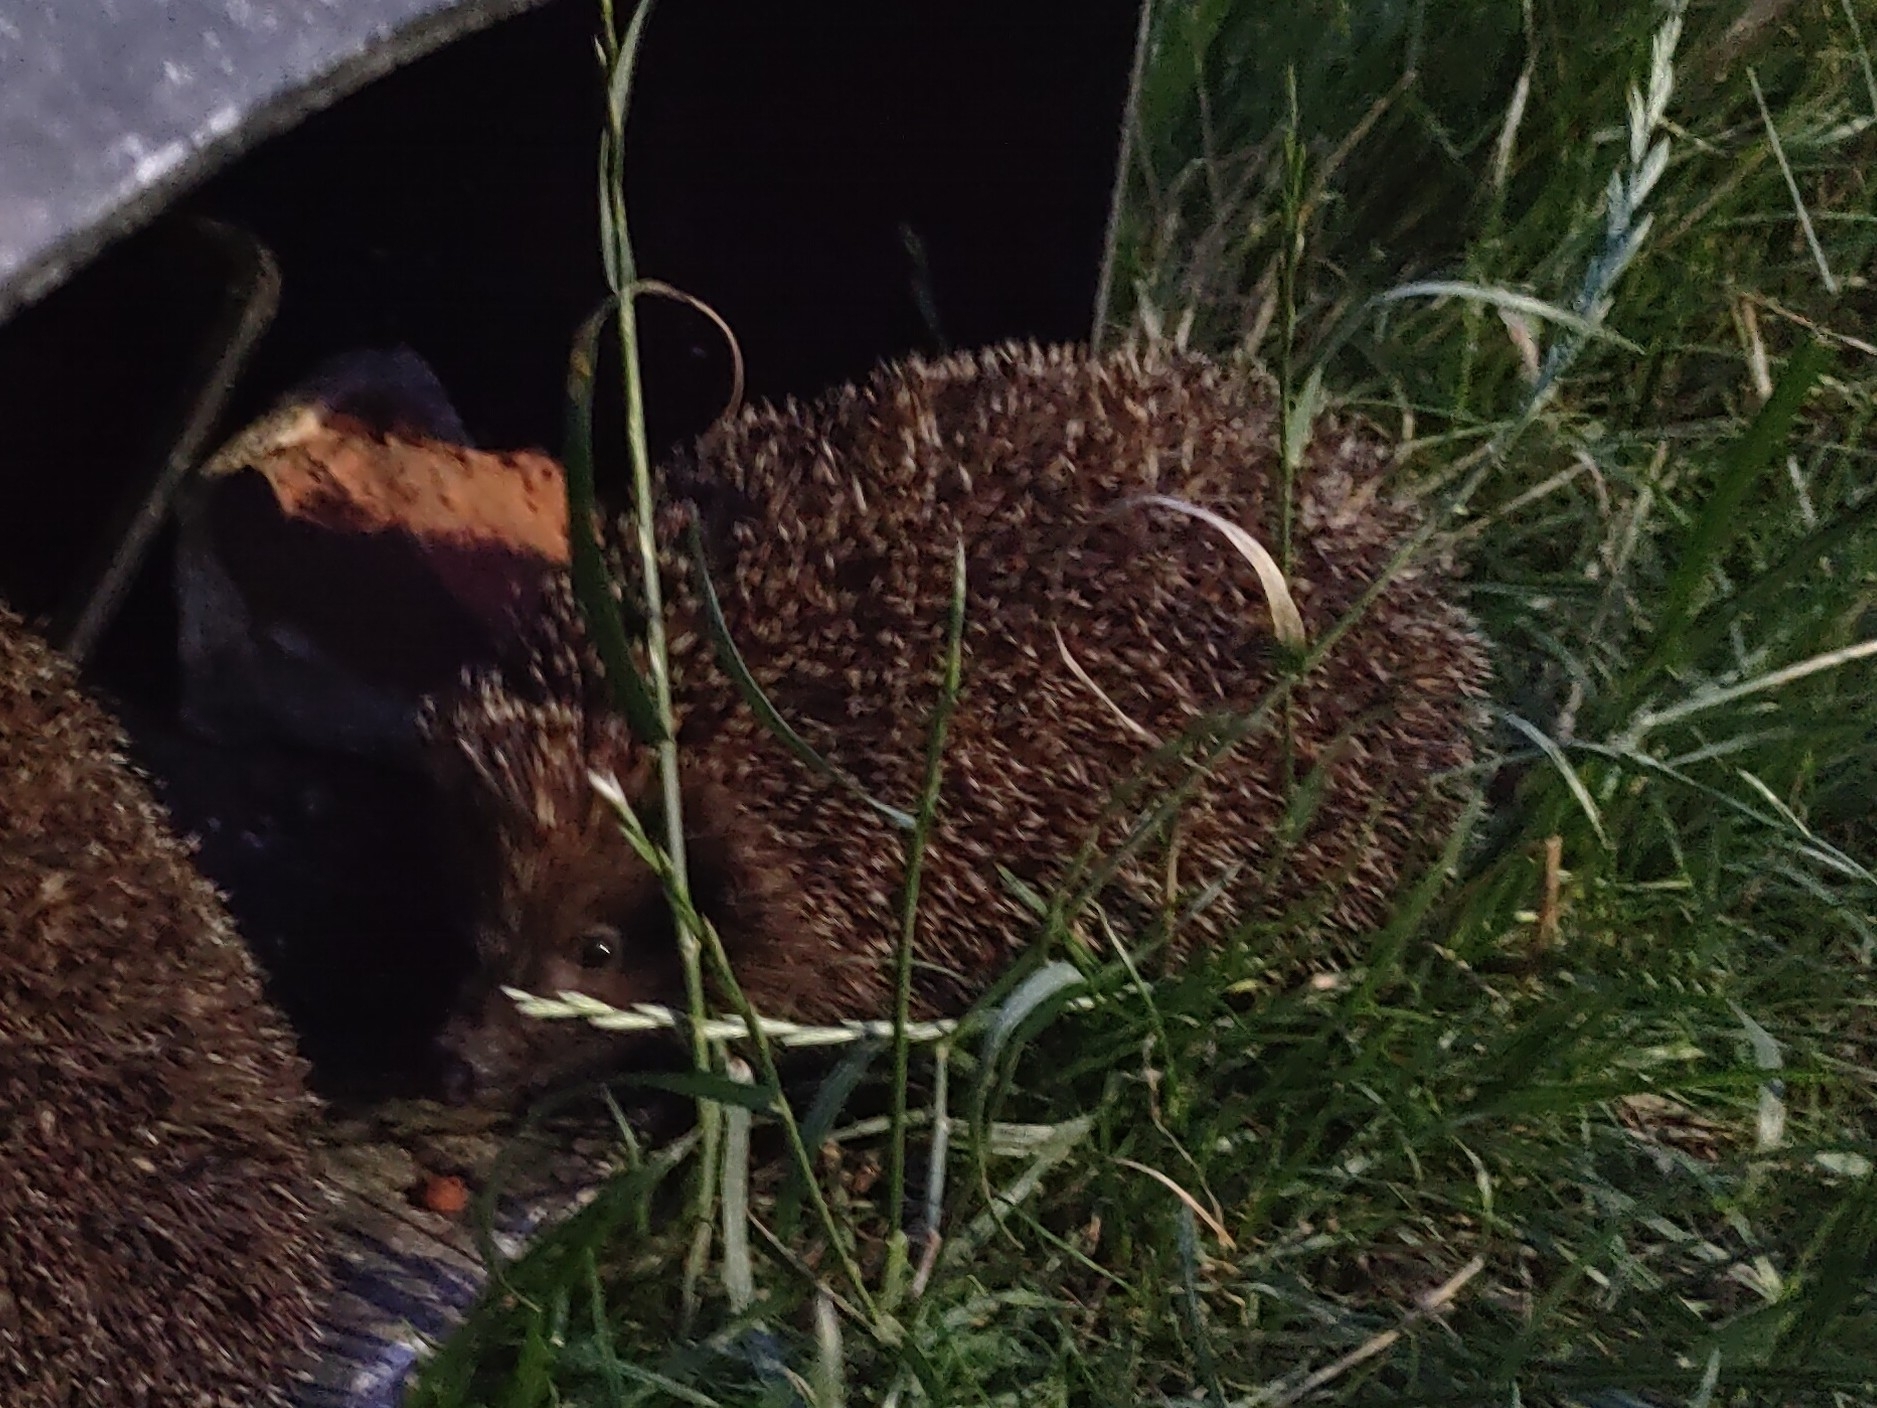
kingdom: Animalia
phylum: Chordata
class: Mammalia
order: Erinaceomorpha
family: Erinaceidae
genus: Erinaceus
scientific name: Erinaceus
